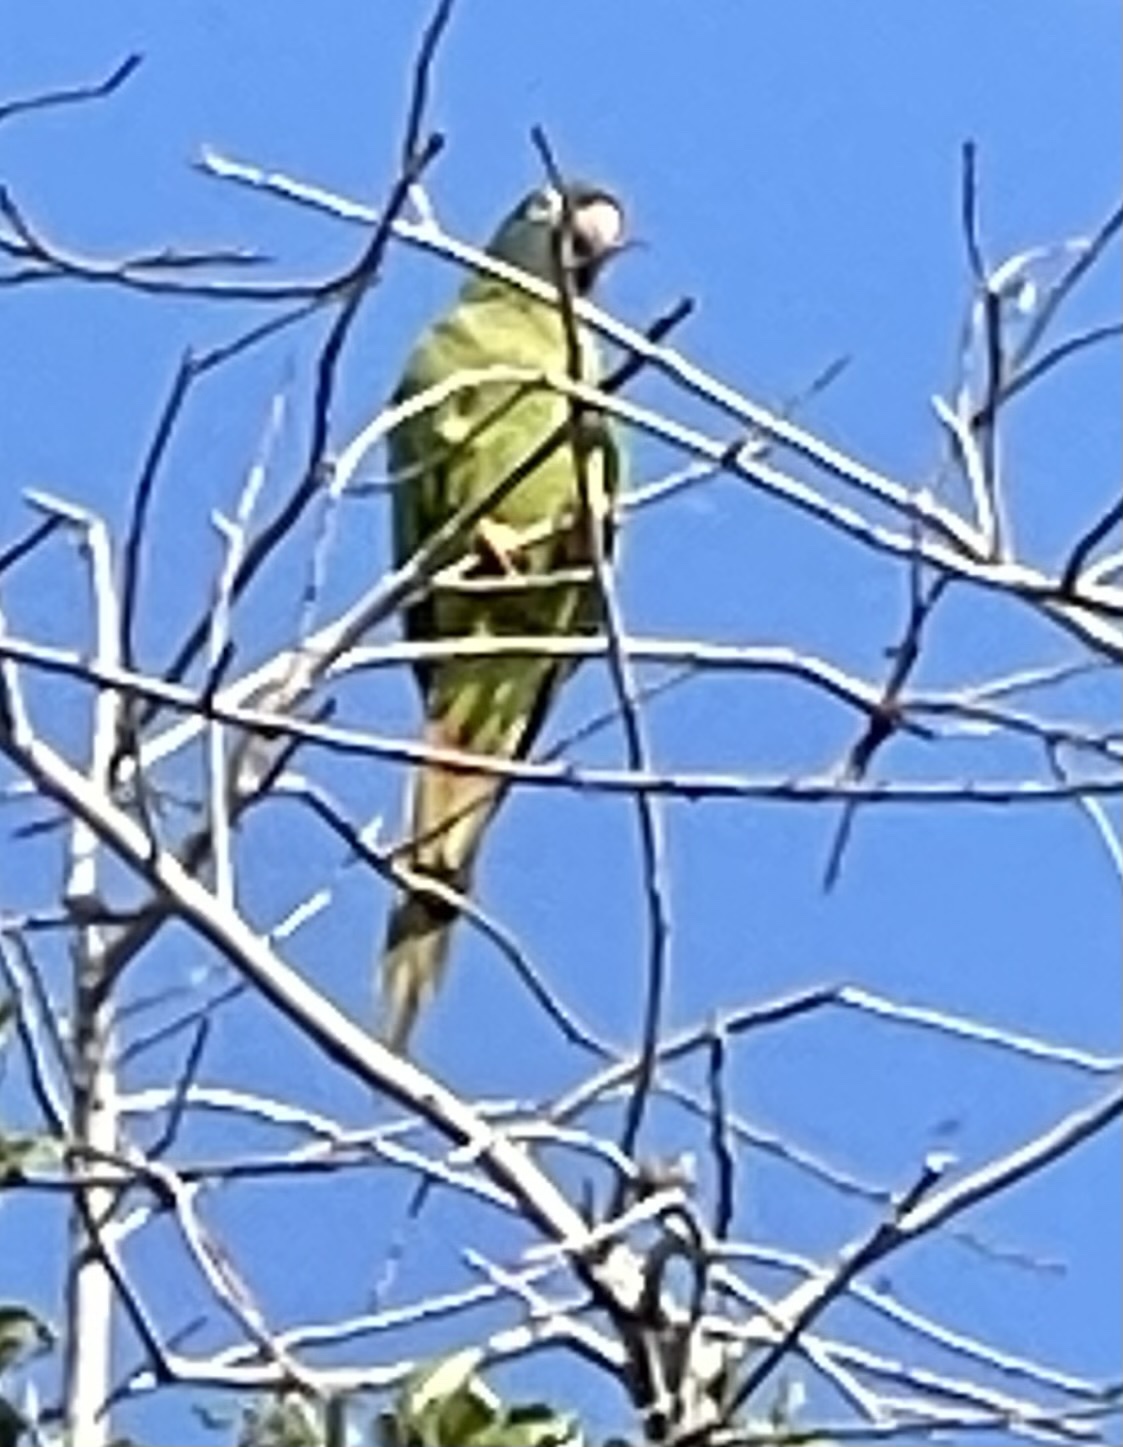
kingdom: Animalia
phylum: Chordata
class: Aves
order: Psittaciformes
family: Psittacidae
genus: Aratinga
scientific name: Aratinga acuticaudata
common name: Blue-crowned parakeet
